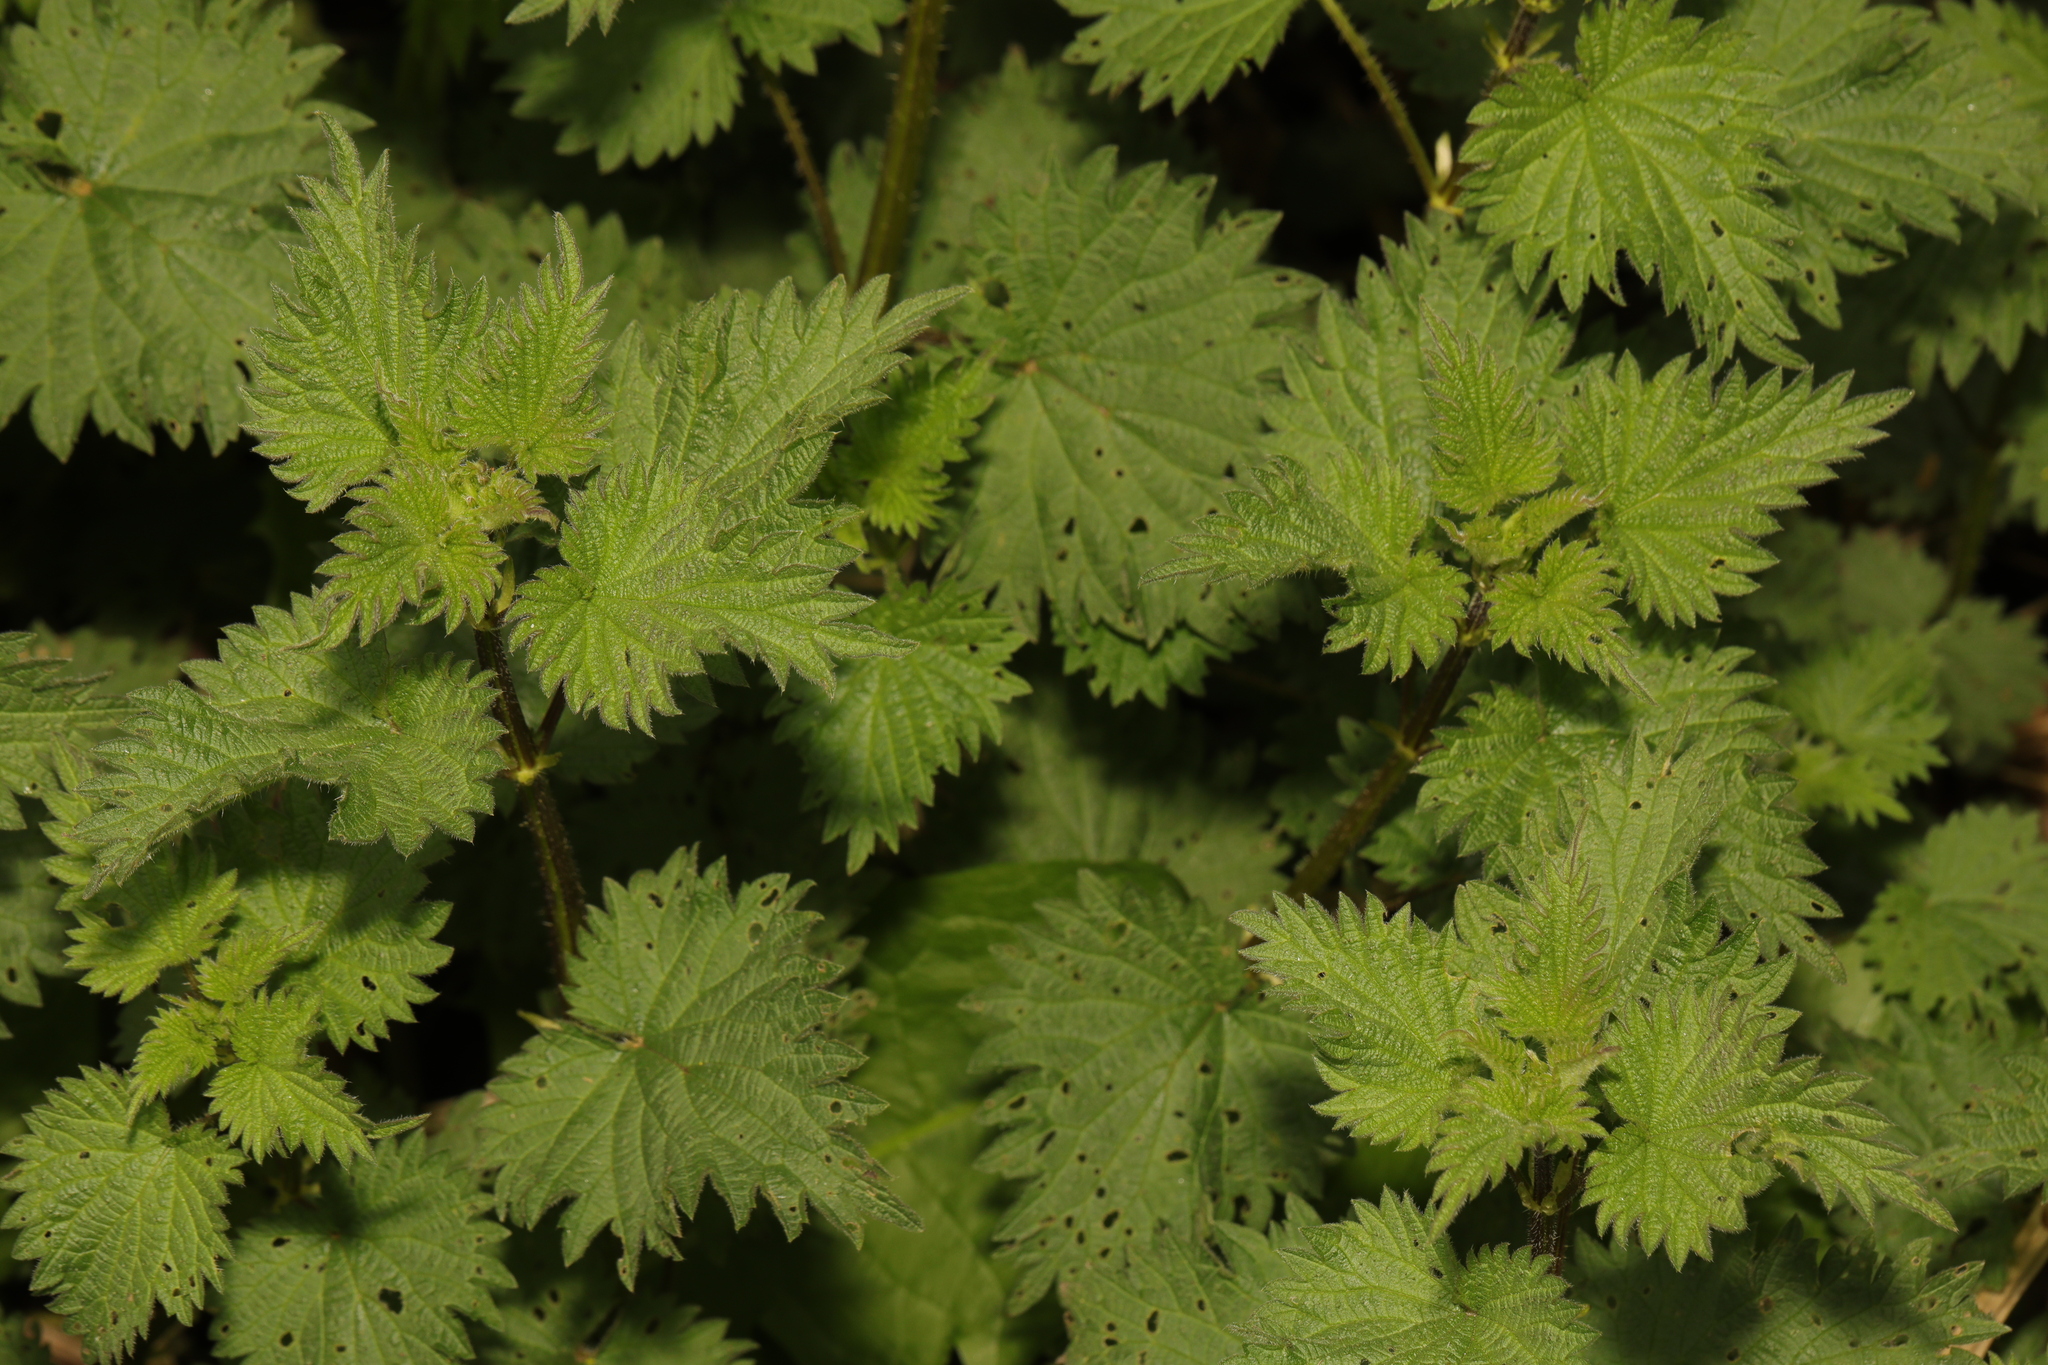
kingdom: Plantae
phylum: Tracheophyta
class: Magnoliopsida
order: Rosales
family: Urticaceae
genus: Urtica
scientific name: Urtica dioica
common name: Common nettle
